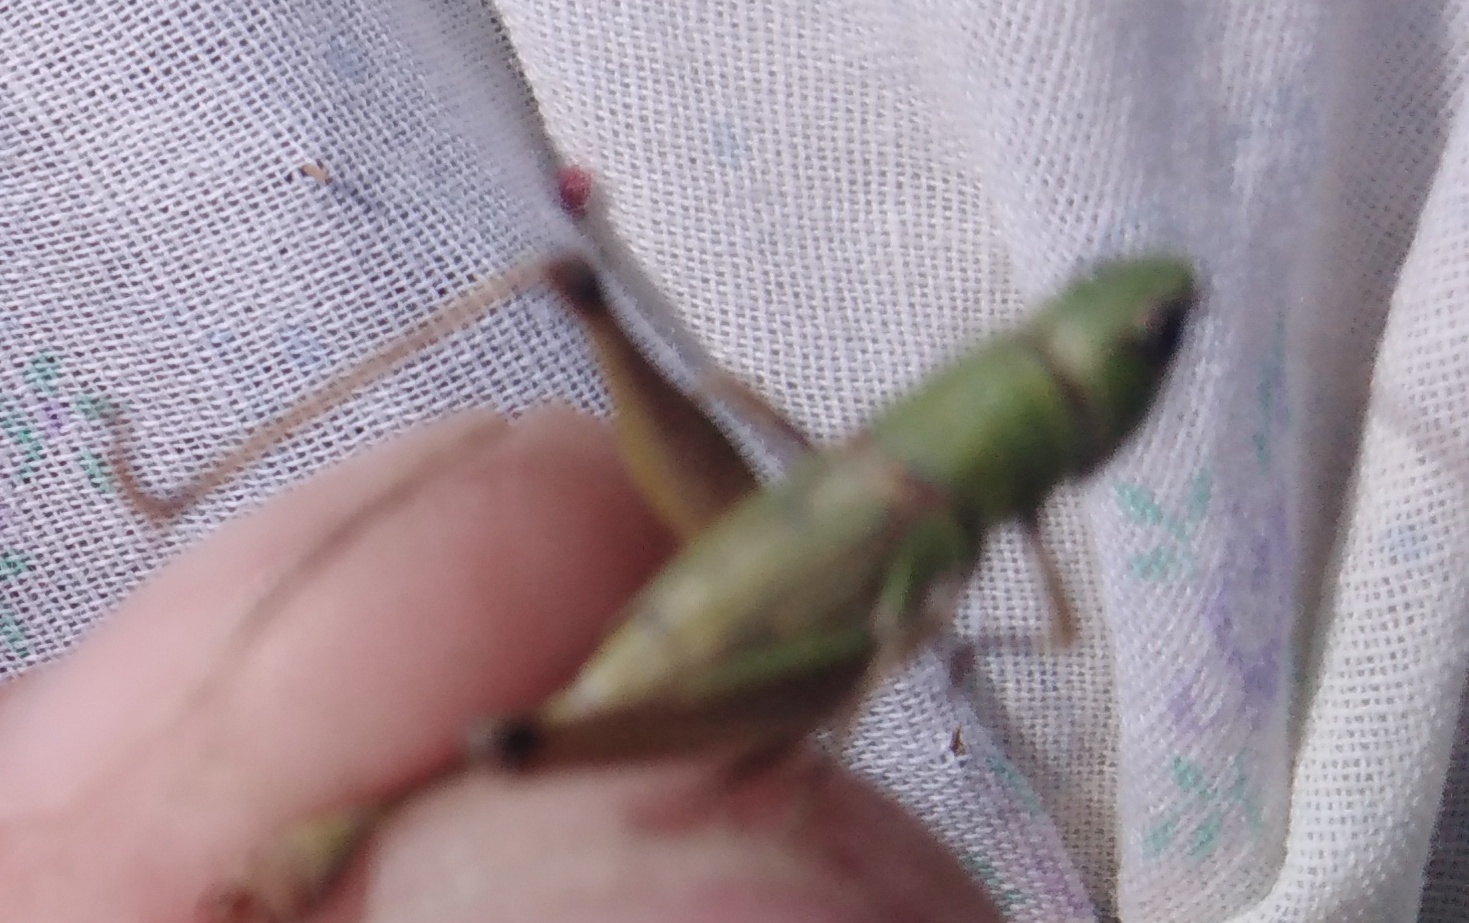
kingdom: Animalia
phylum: Arthropoda
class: Insecta
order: Orthoptera
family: Acrididae
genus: Pseudochorthippus
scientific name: Pseudochorthippus parallelus
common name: Meadow grasshopper
